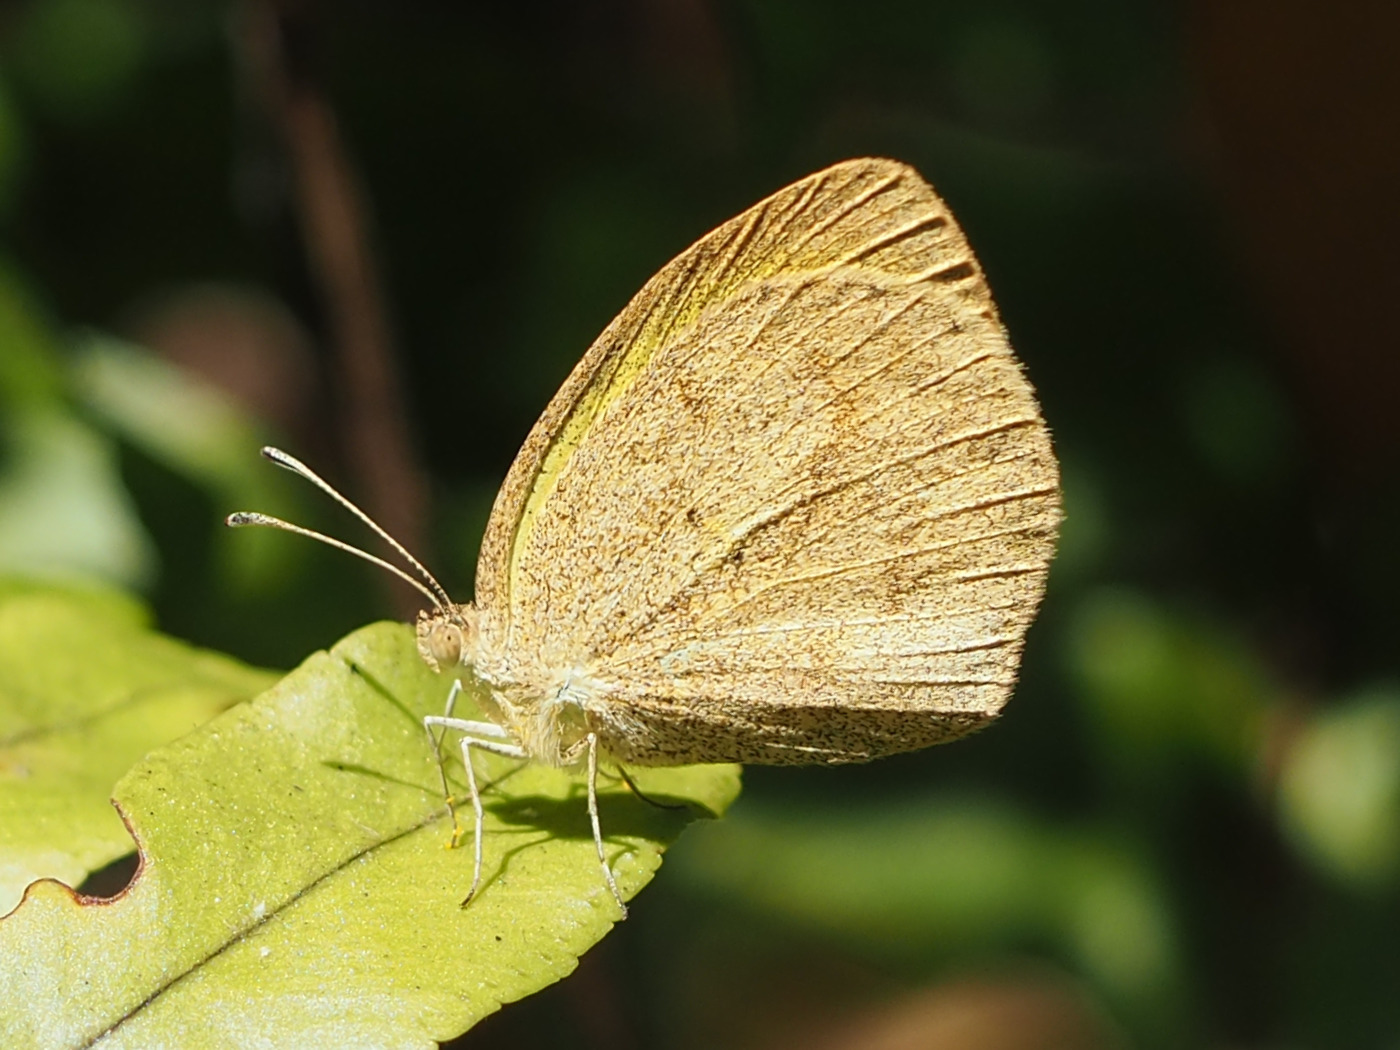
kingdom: Animalia
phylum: Arthropoda
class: Insecta
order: Lepidoptera
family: Pieridae
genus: Eurema
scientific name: Eurema daira
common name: Barred sulphur
